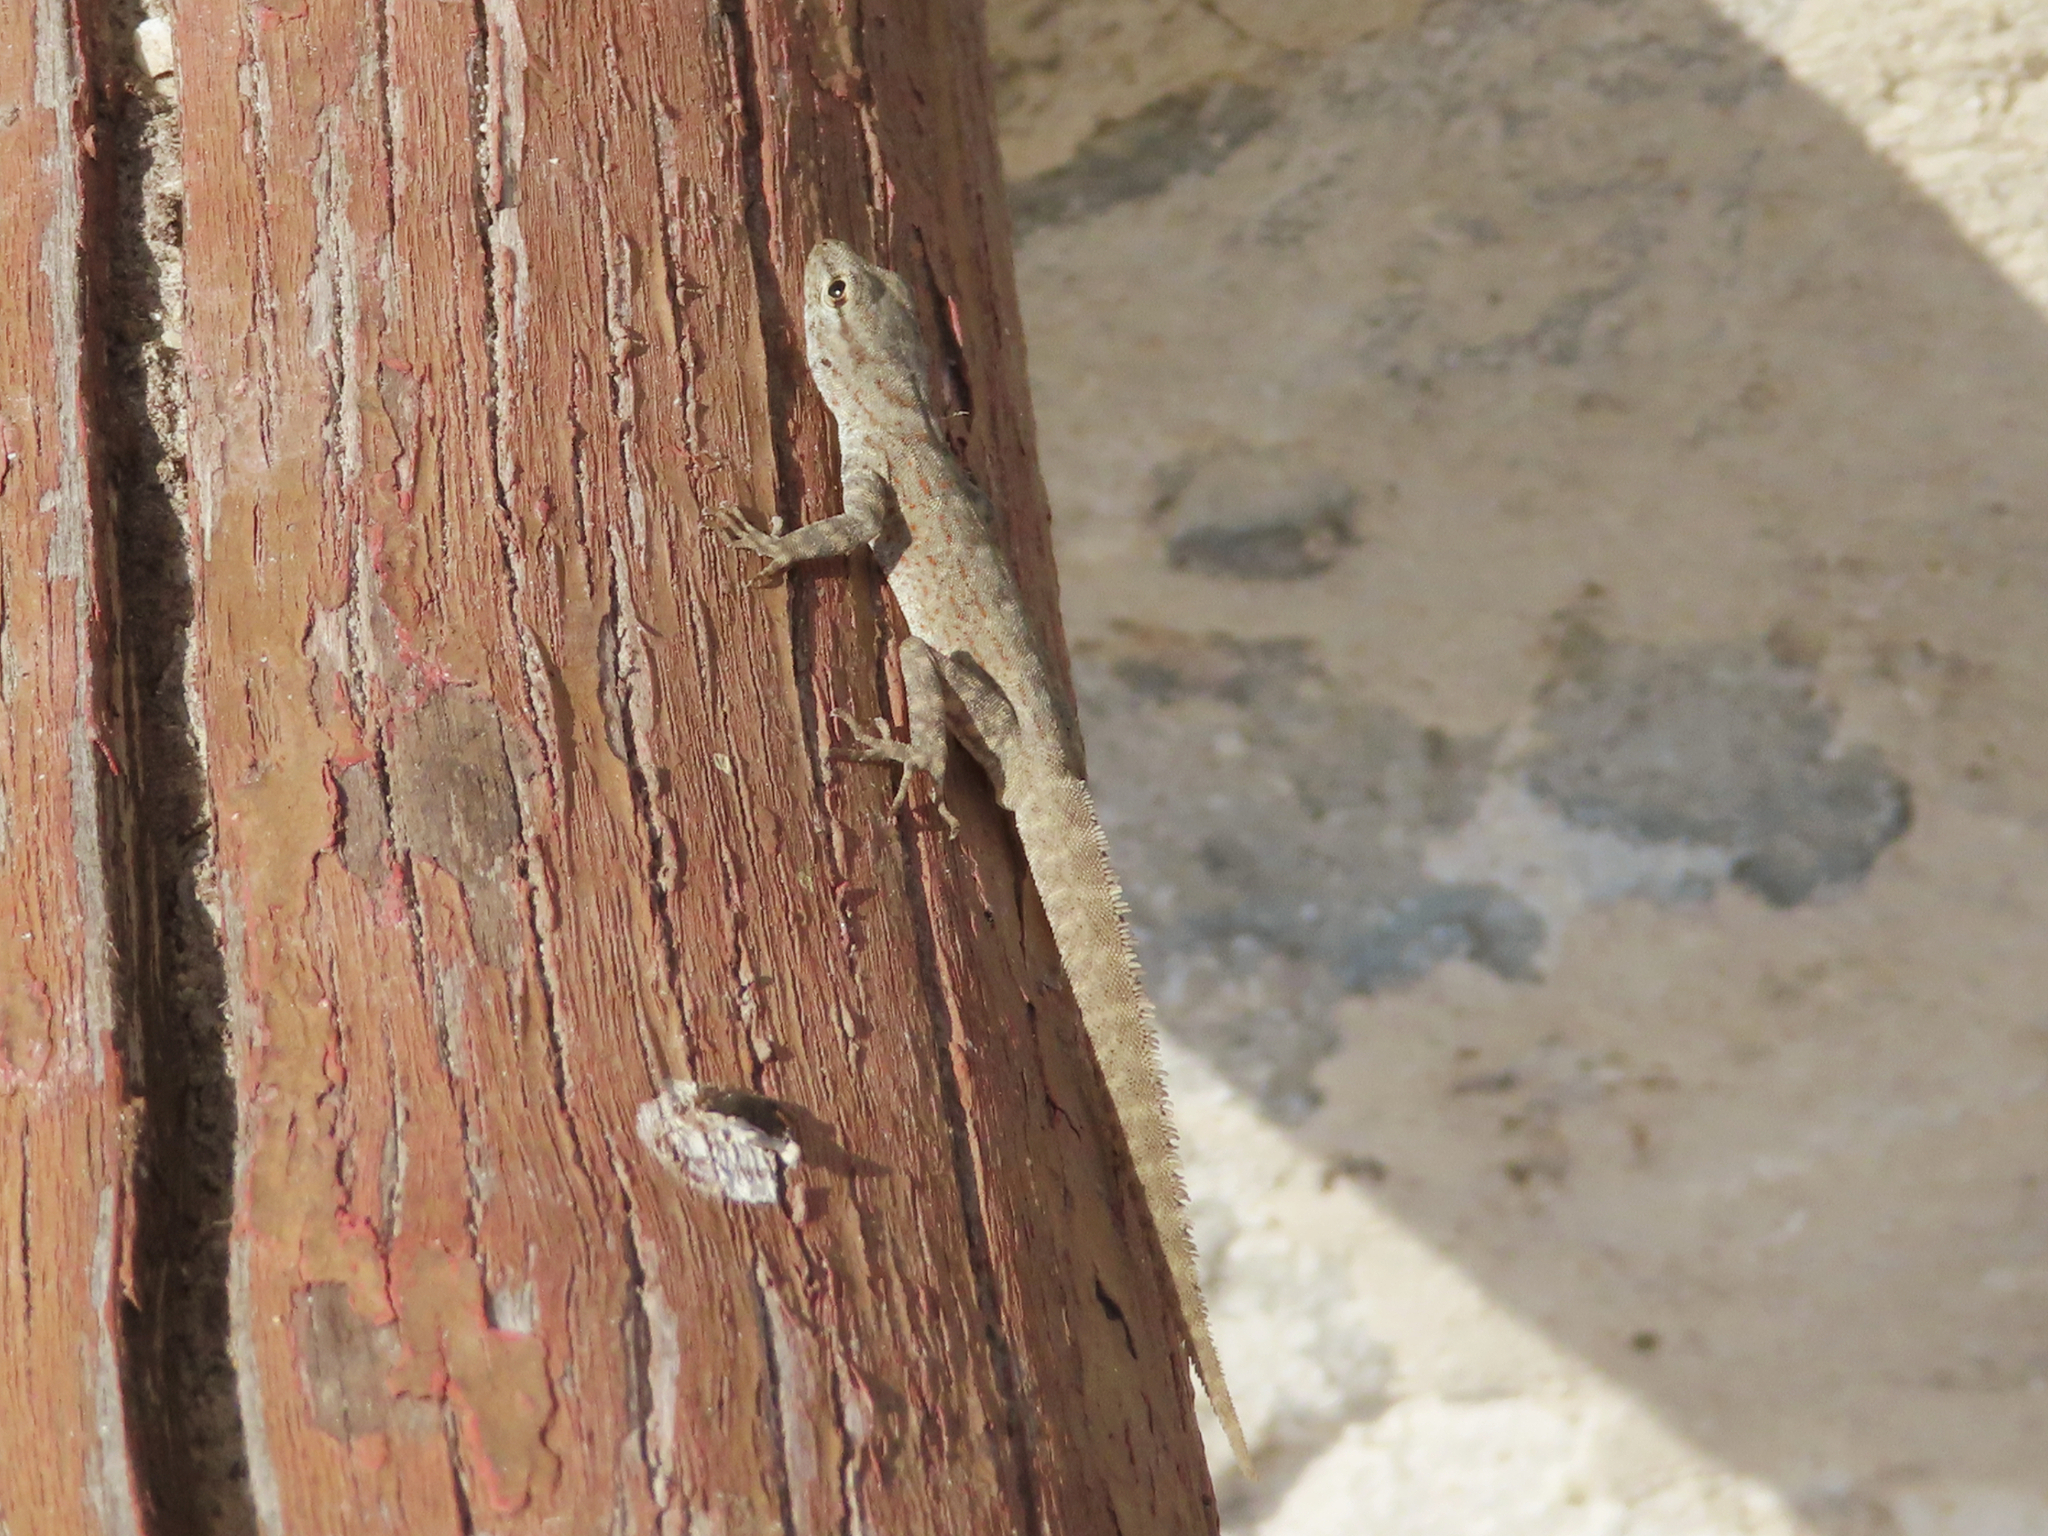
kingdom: Animalia
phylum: Chordata
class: Squamata
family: Sphaerodactylidae
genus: Pristurus
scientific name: Pristurus rupestris
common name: Blanford’s semaphore gecko
